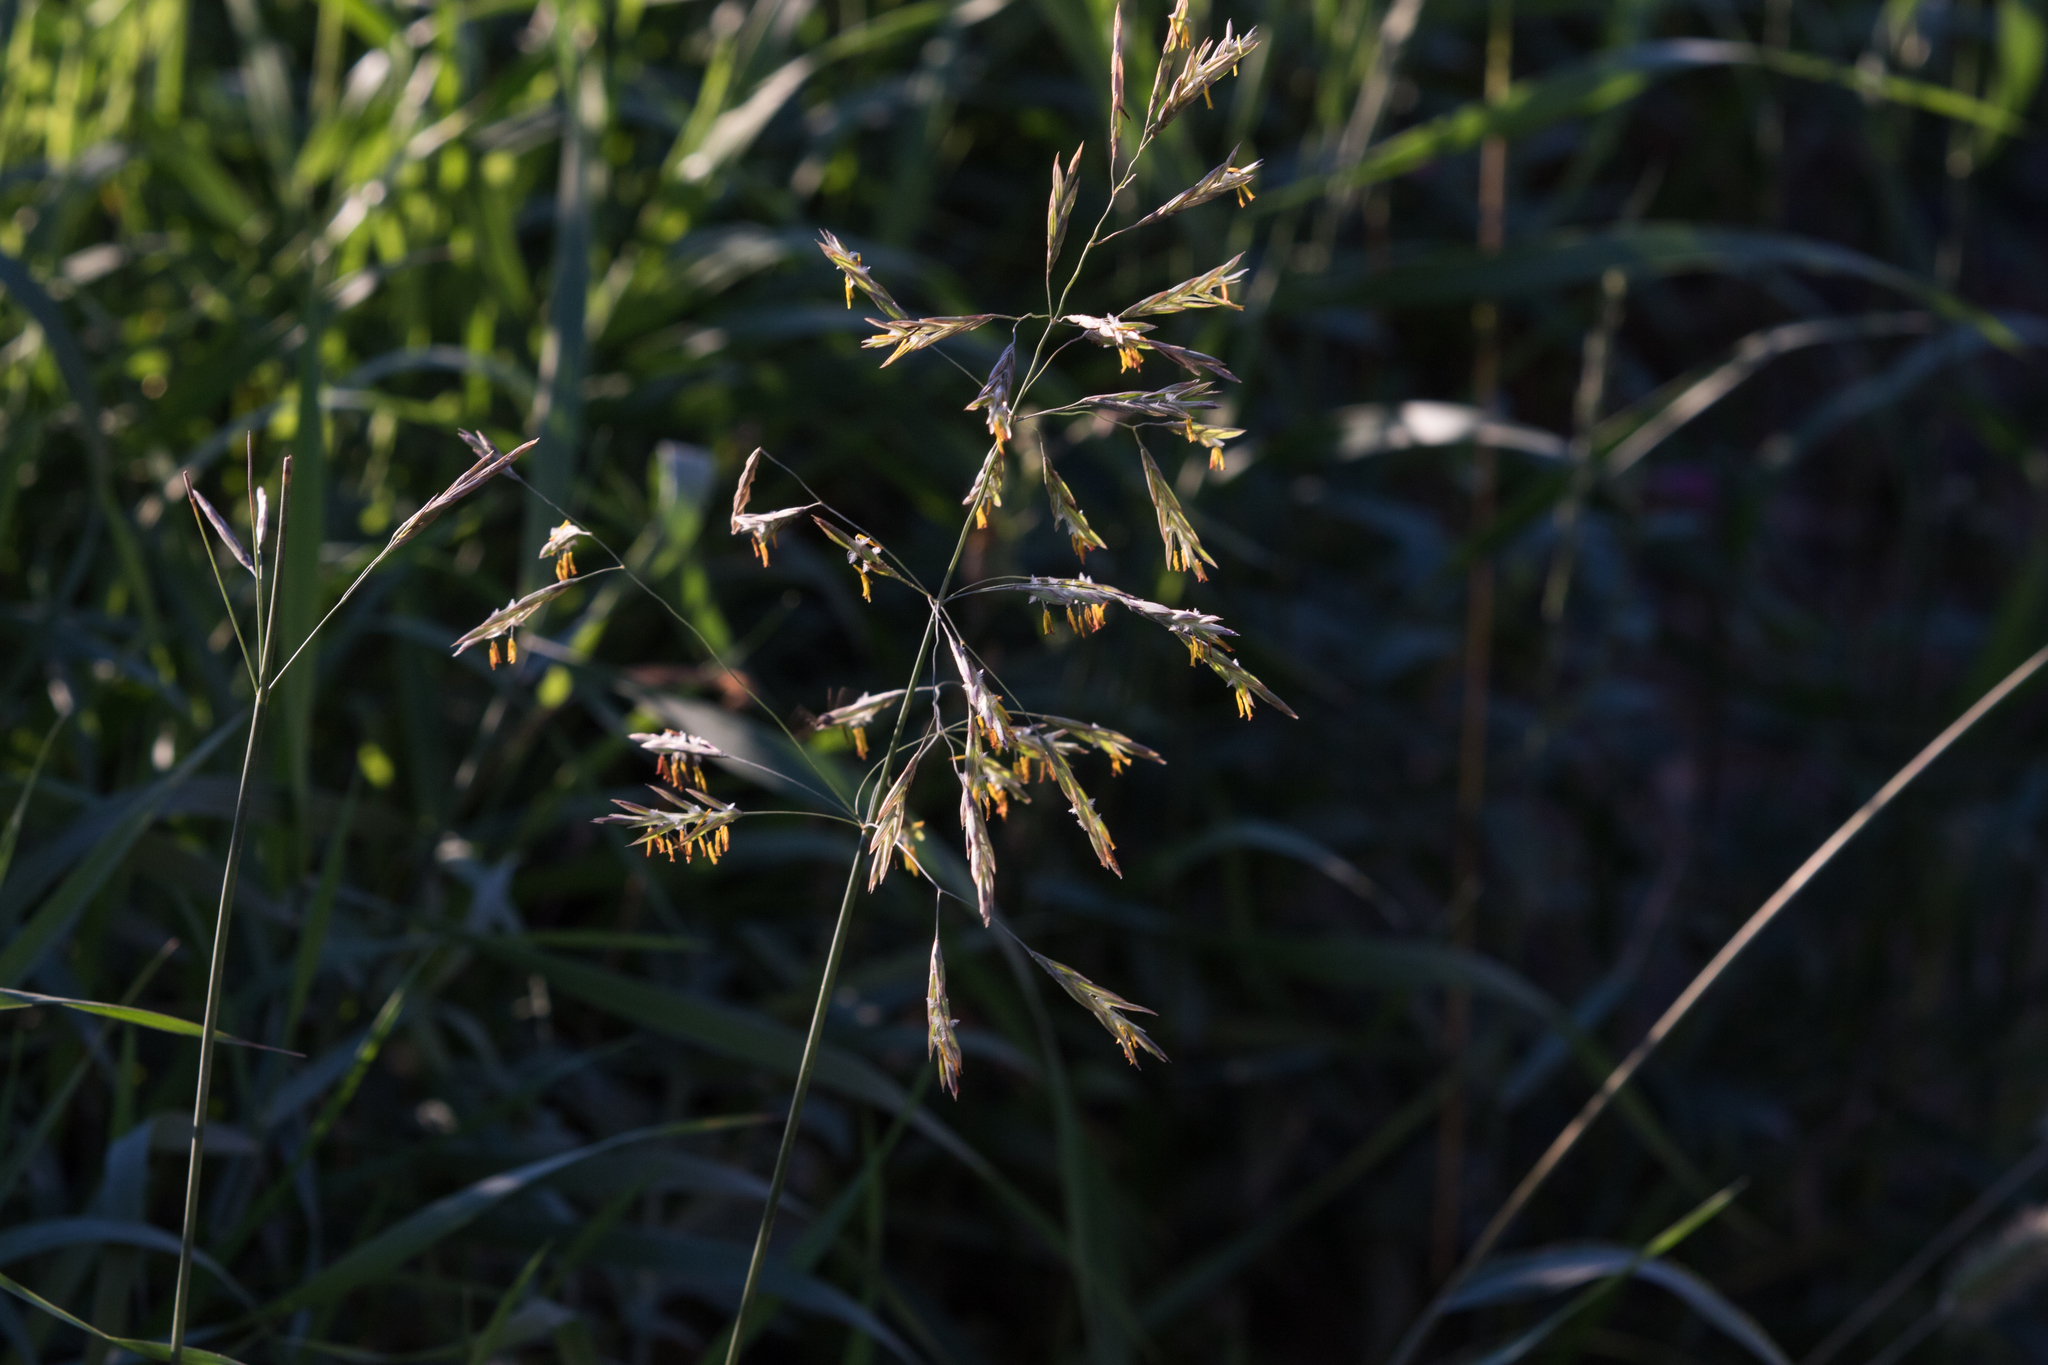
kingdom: Plantae
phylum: Tracheophyta
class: Liliopsida
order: Poales
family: Poaceae
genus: Bromus
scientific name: Bromus inermis
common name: Smooth brome
